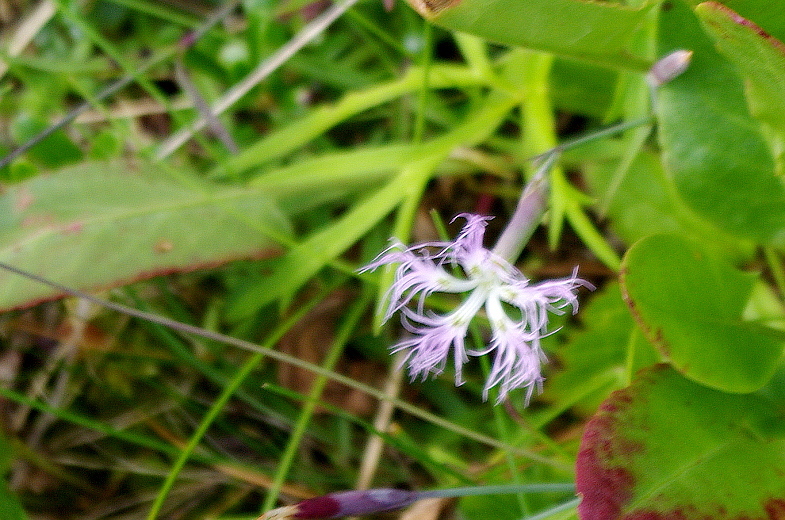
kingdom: Plantae
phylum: Tracheophyta
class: Magnoliopsida
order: Caryophyllales
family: Caryophyllaceae
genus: Dianthus
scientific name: Dianthus superbus
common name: Fringed pink
